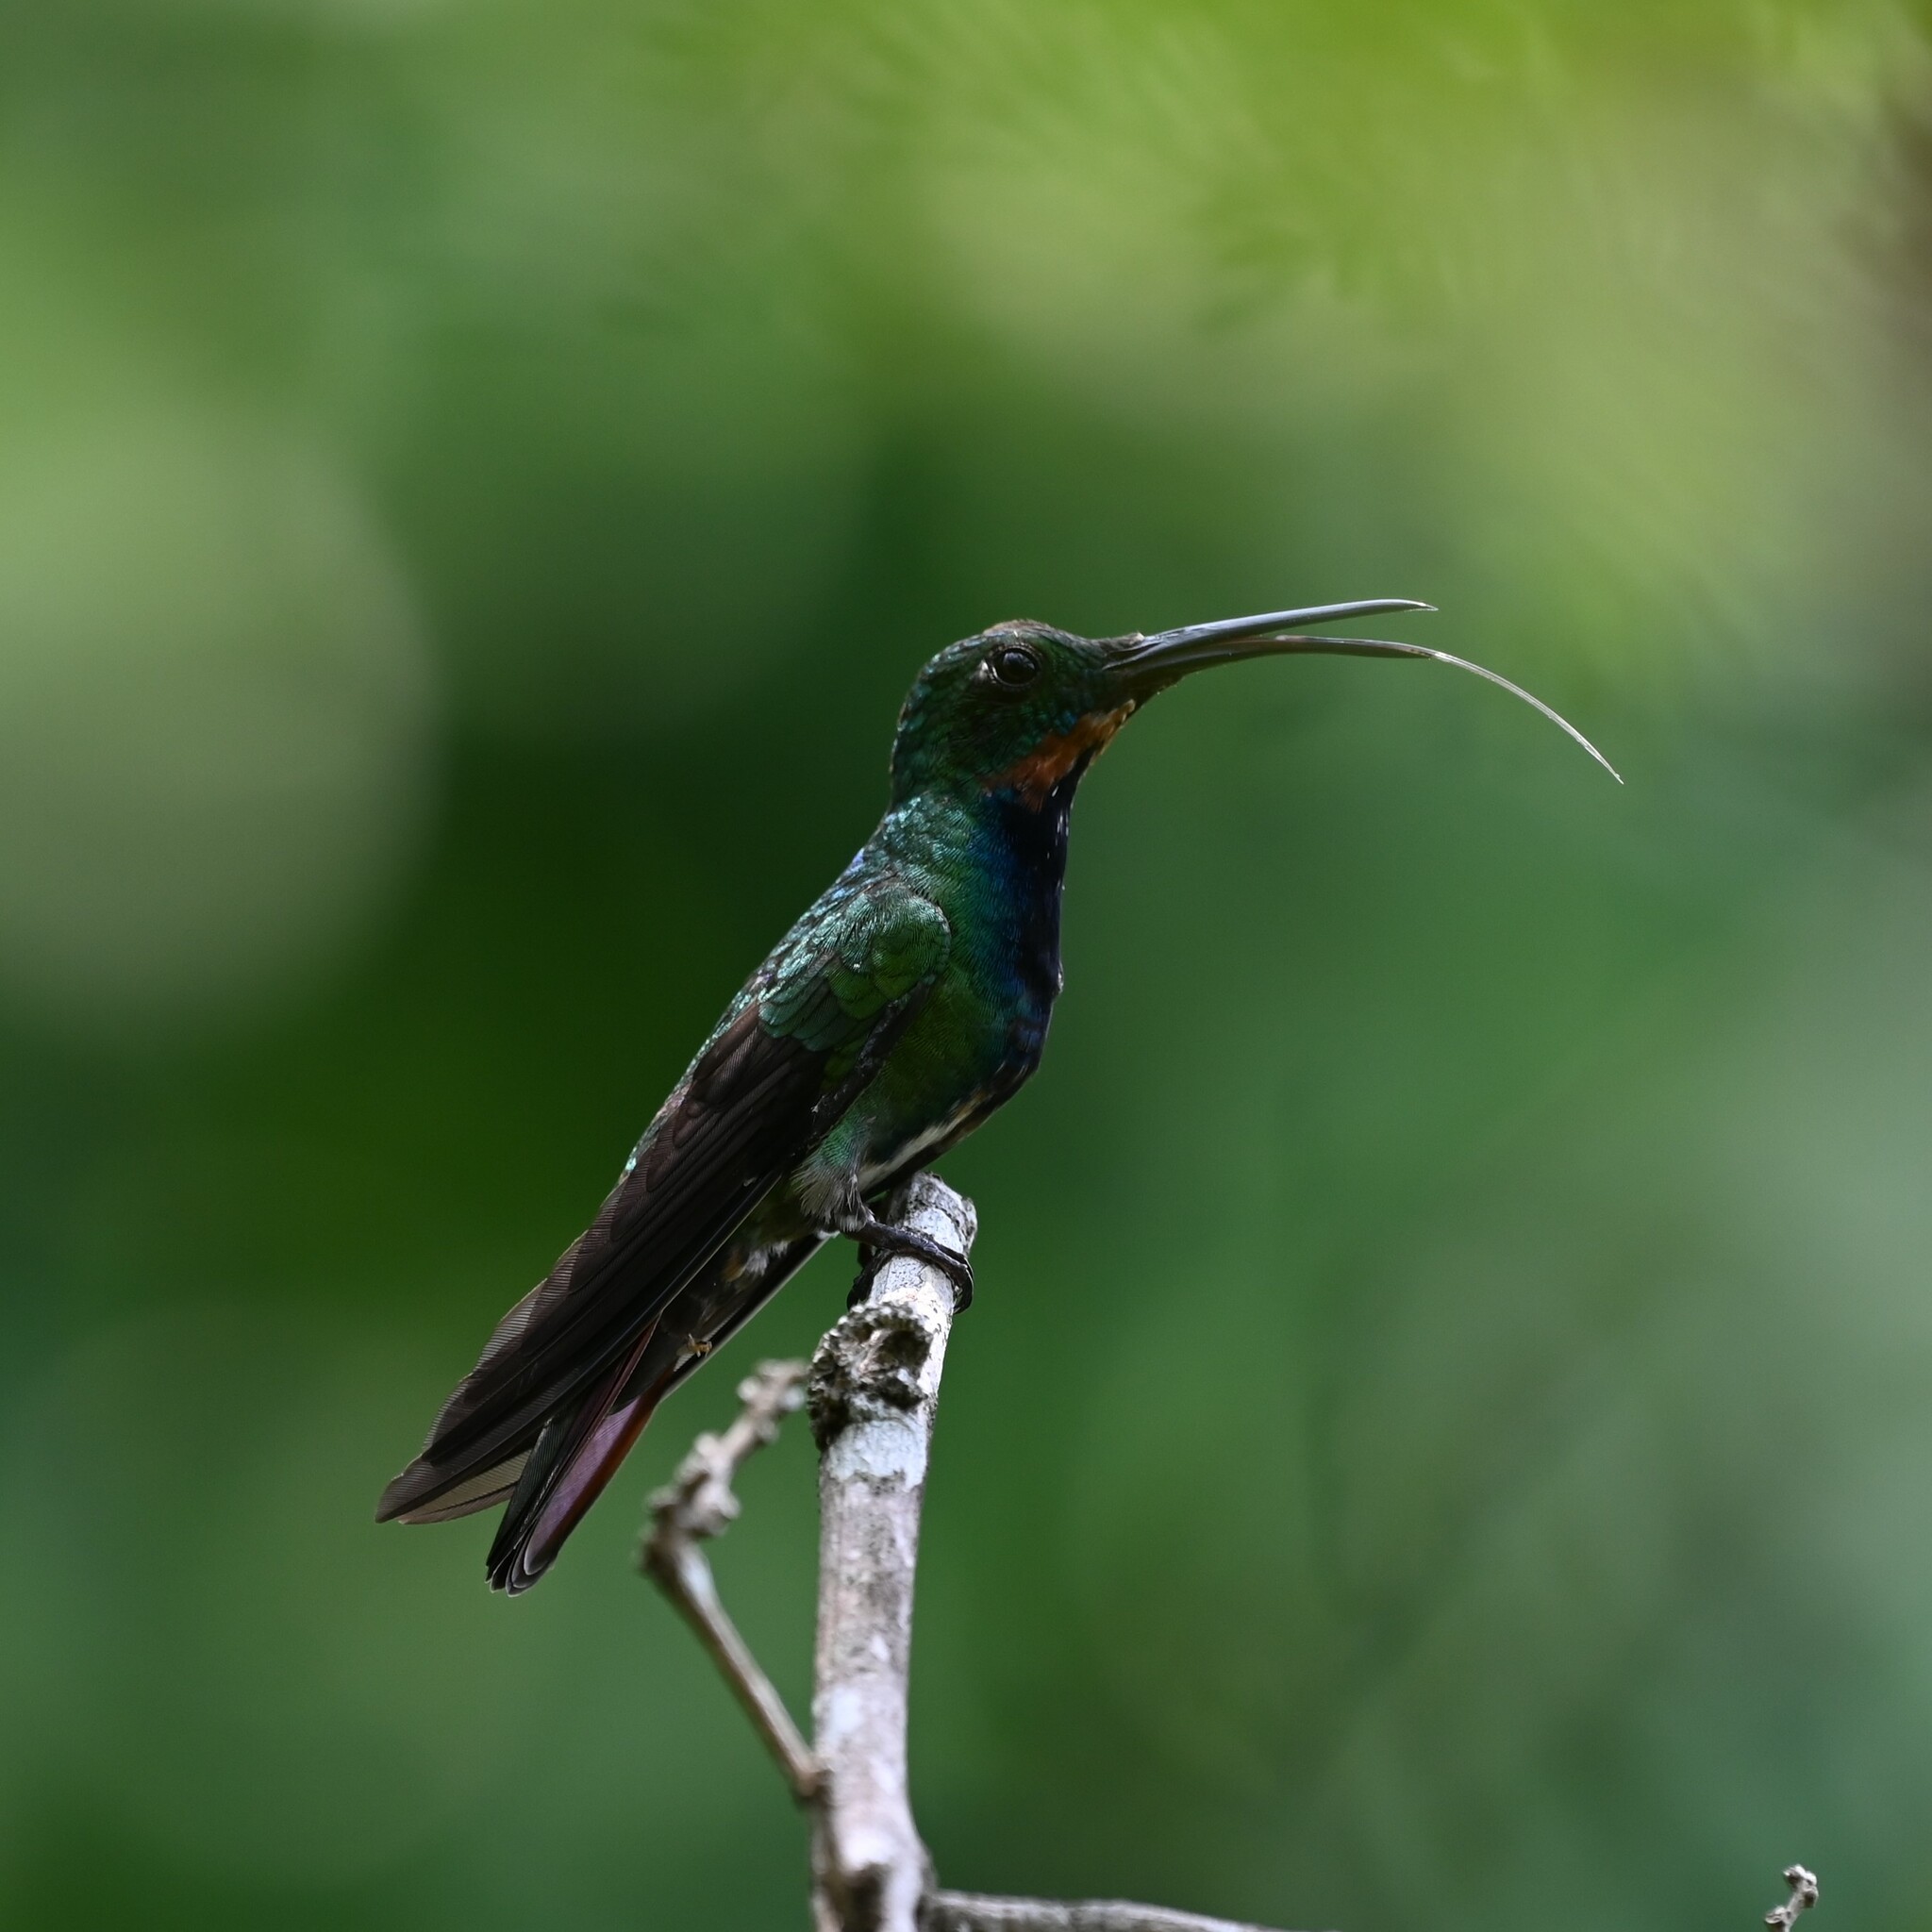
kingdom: Animalia
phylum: Chordata
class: Aves
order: Apodiformes
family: Trochilidae
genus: Anthracothorax
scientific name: Anthracothorax prevostii
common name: Green-breasted mango
